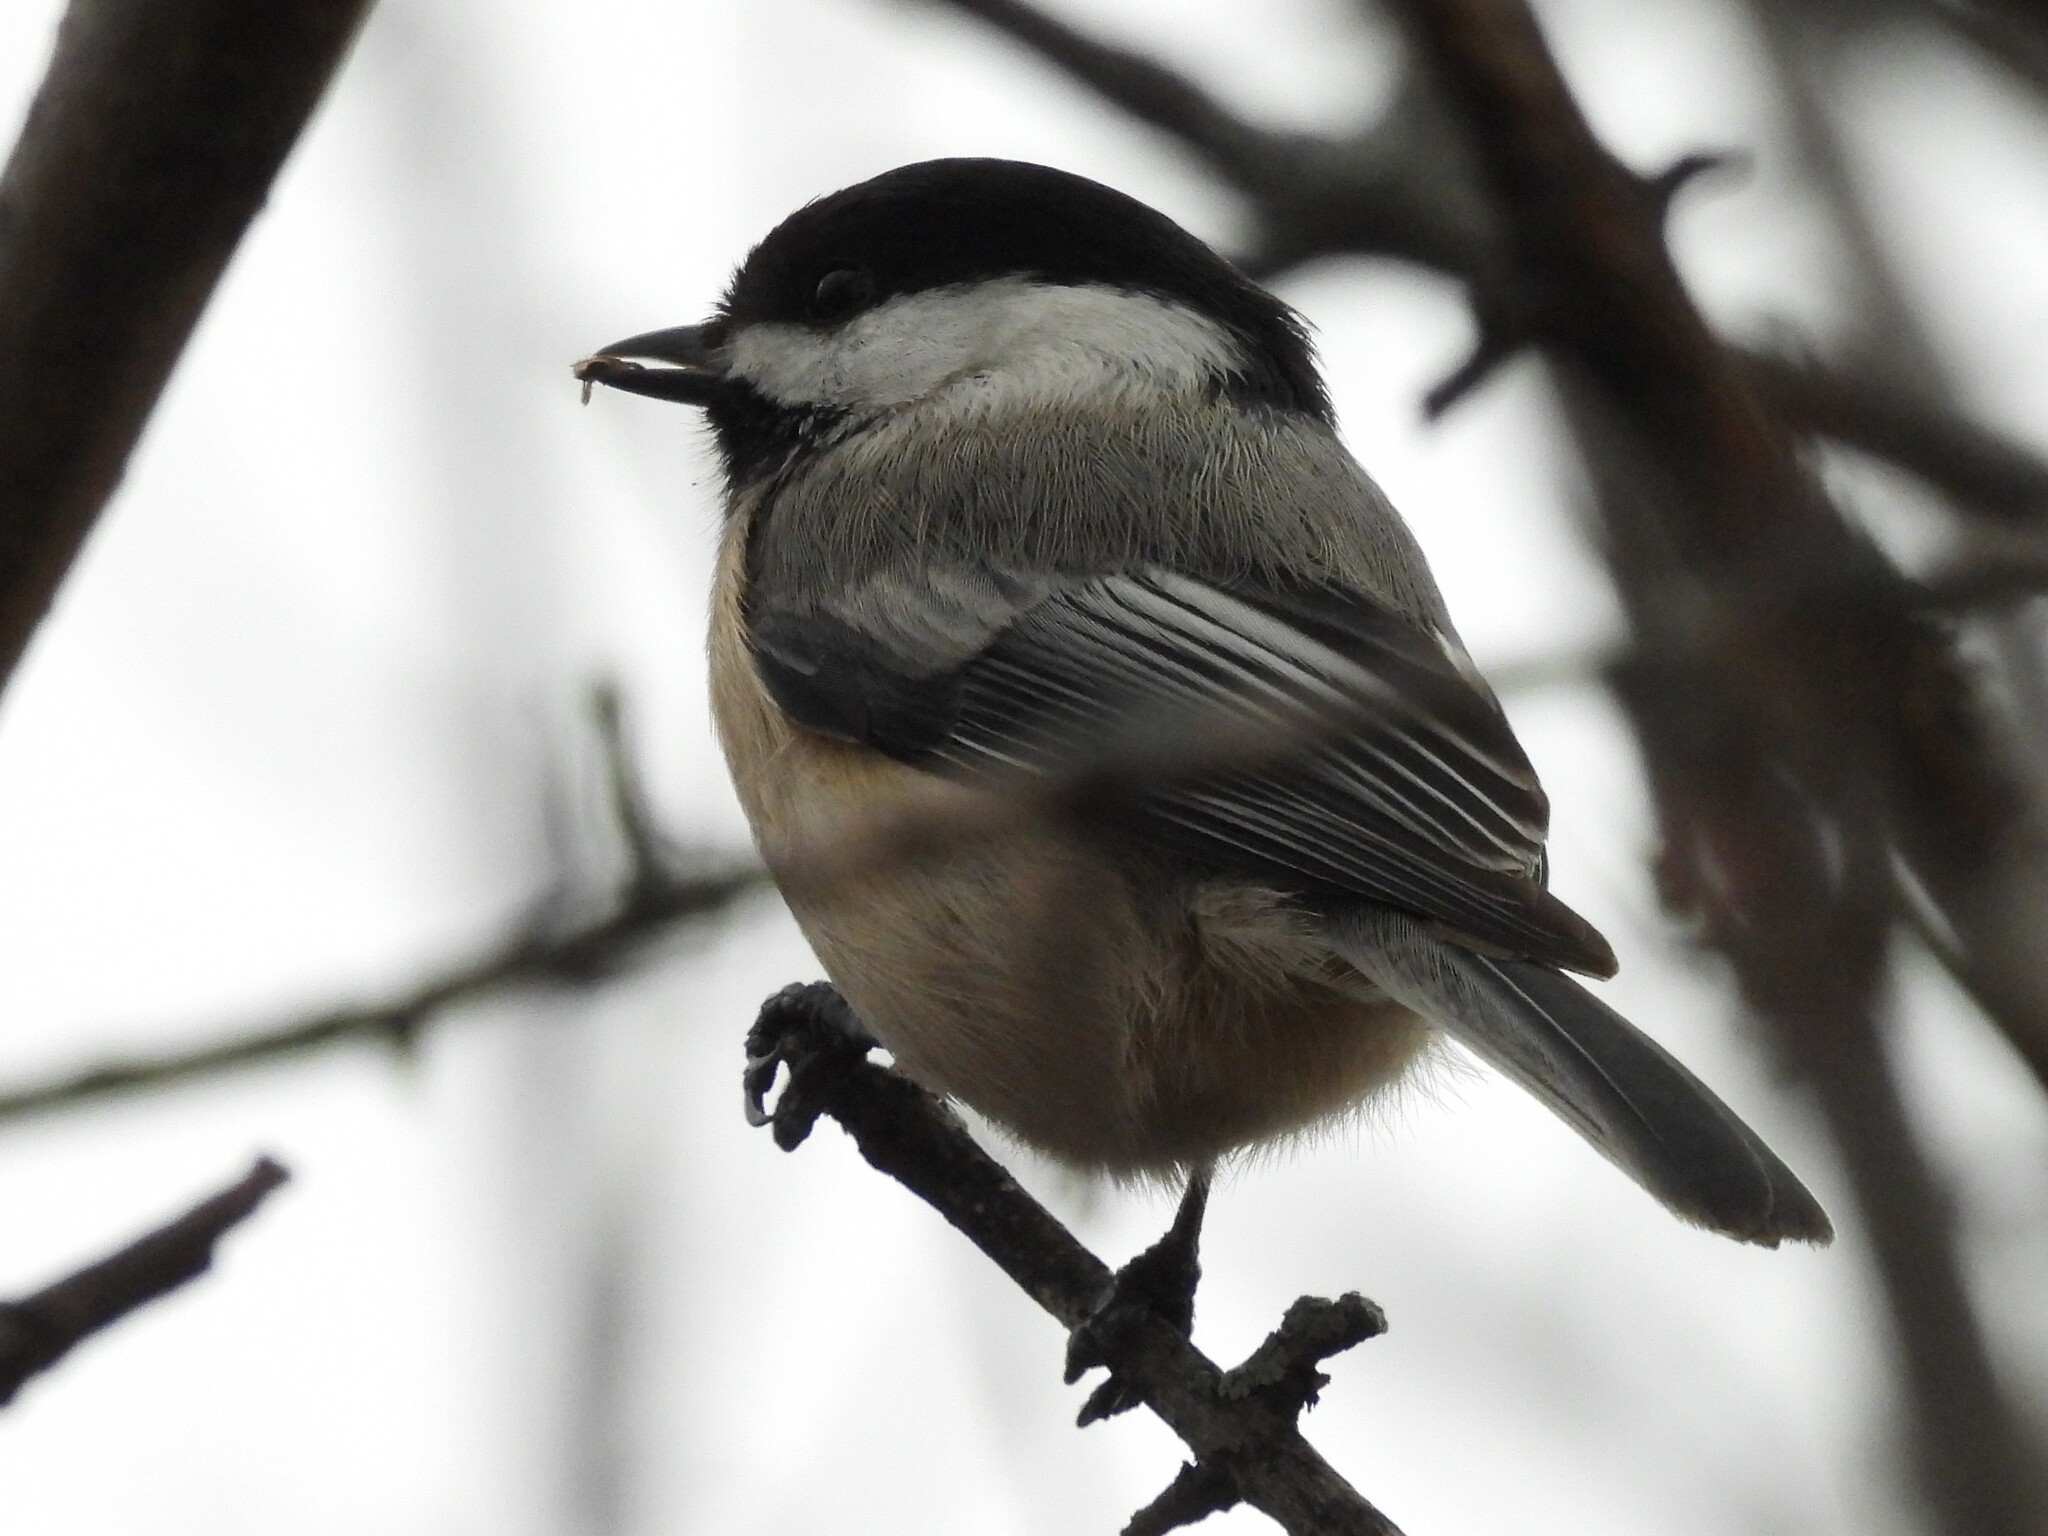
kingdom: Animalia
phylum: Chordata
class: Aves
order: Passeriformes
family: Paridae
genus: Poecile
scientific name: Poecile atricapillus
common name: Black-capped chickadee
